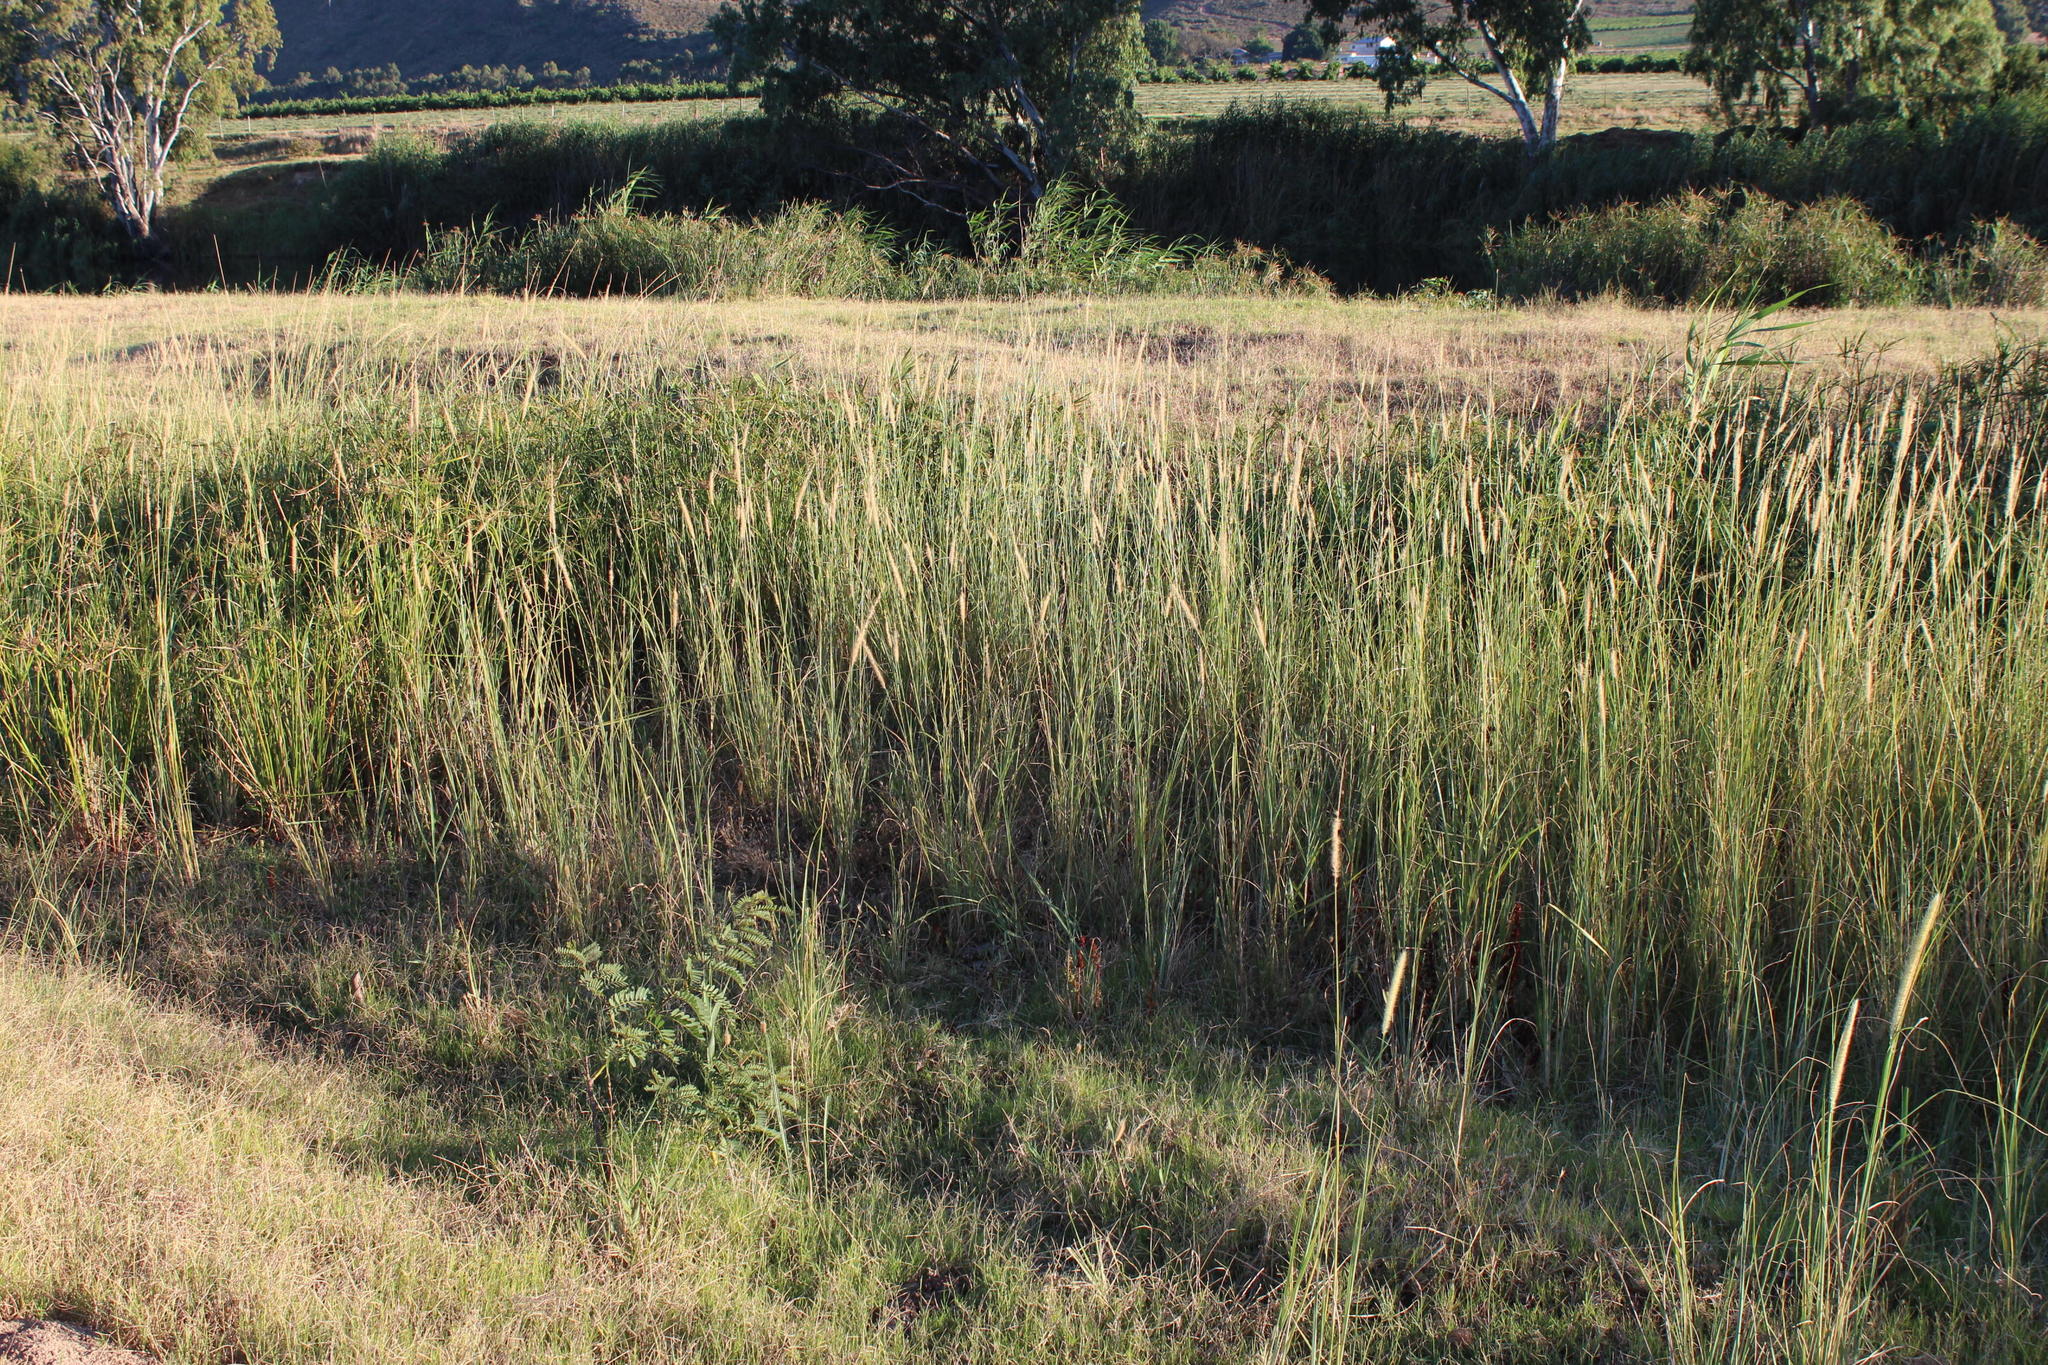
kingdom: Plantae
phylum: Tracheophyta
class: Liliopsida
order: Poales
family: Poaceae
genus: Cenchrus
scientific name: Cenchrus caudatus
